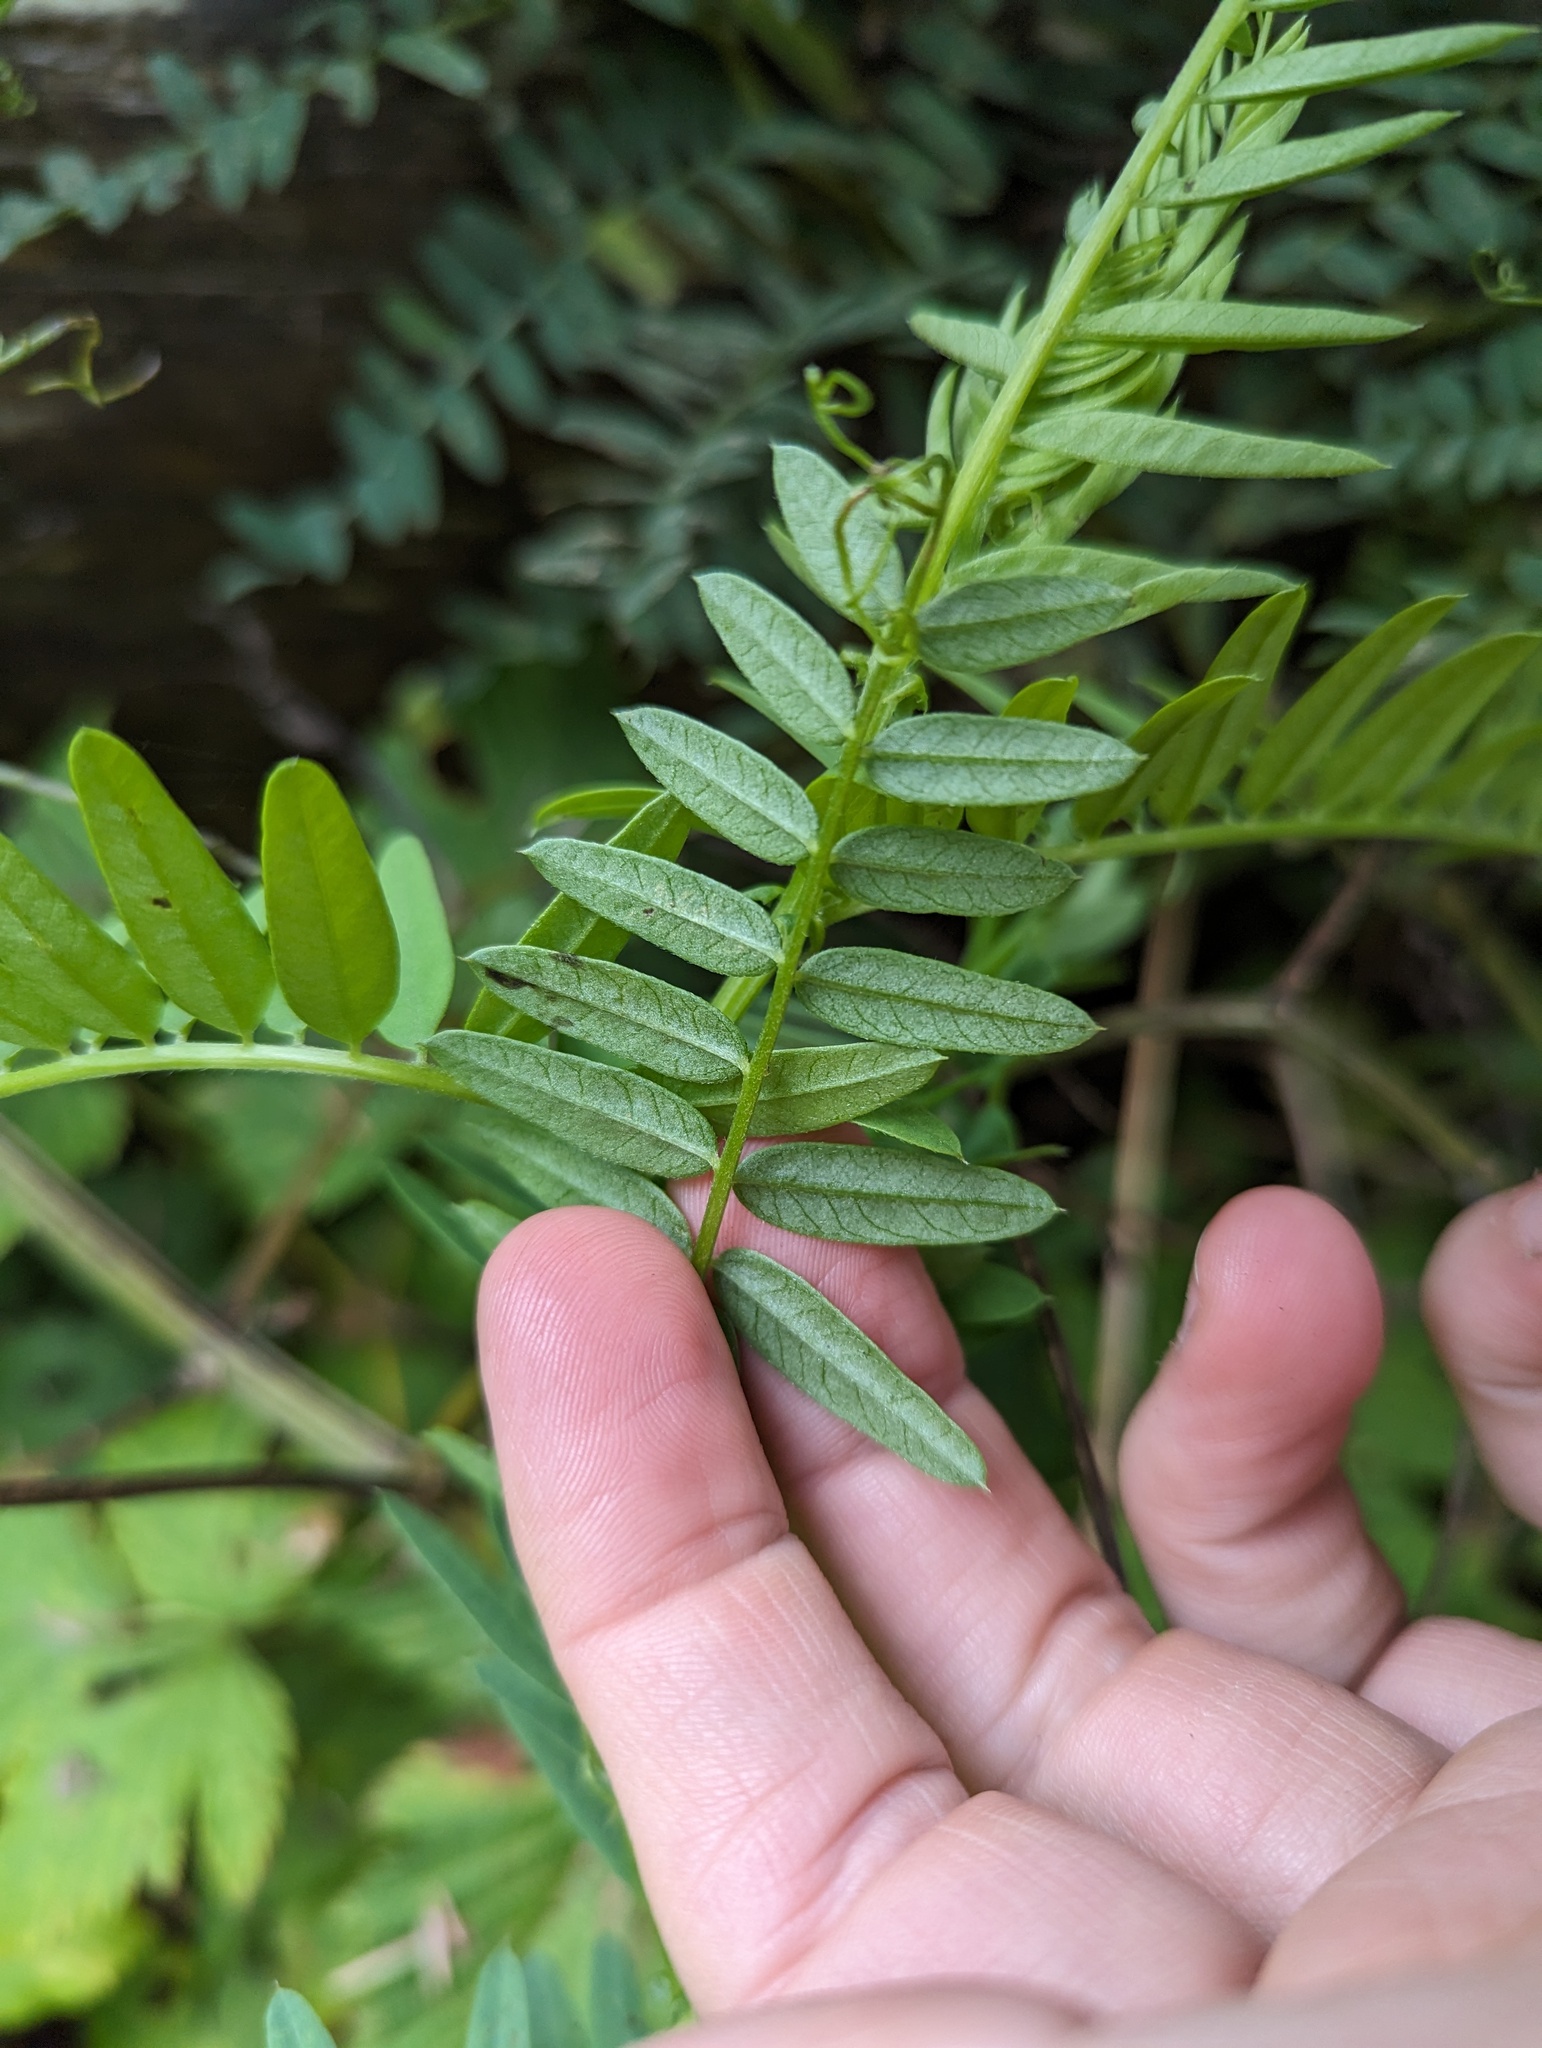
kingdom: Plantae
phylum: Tracheophyta
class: Magnoliopsida
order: Fabales
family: Fabaceae
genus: Vicia
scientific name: Vicia
